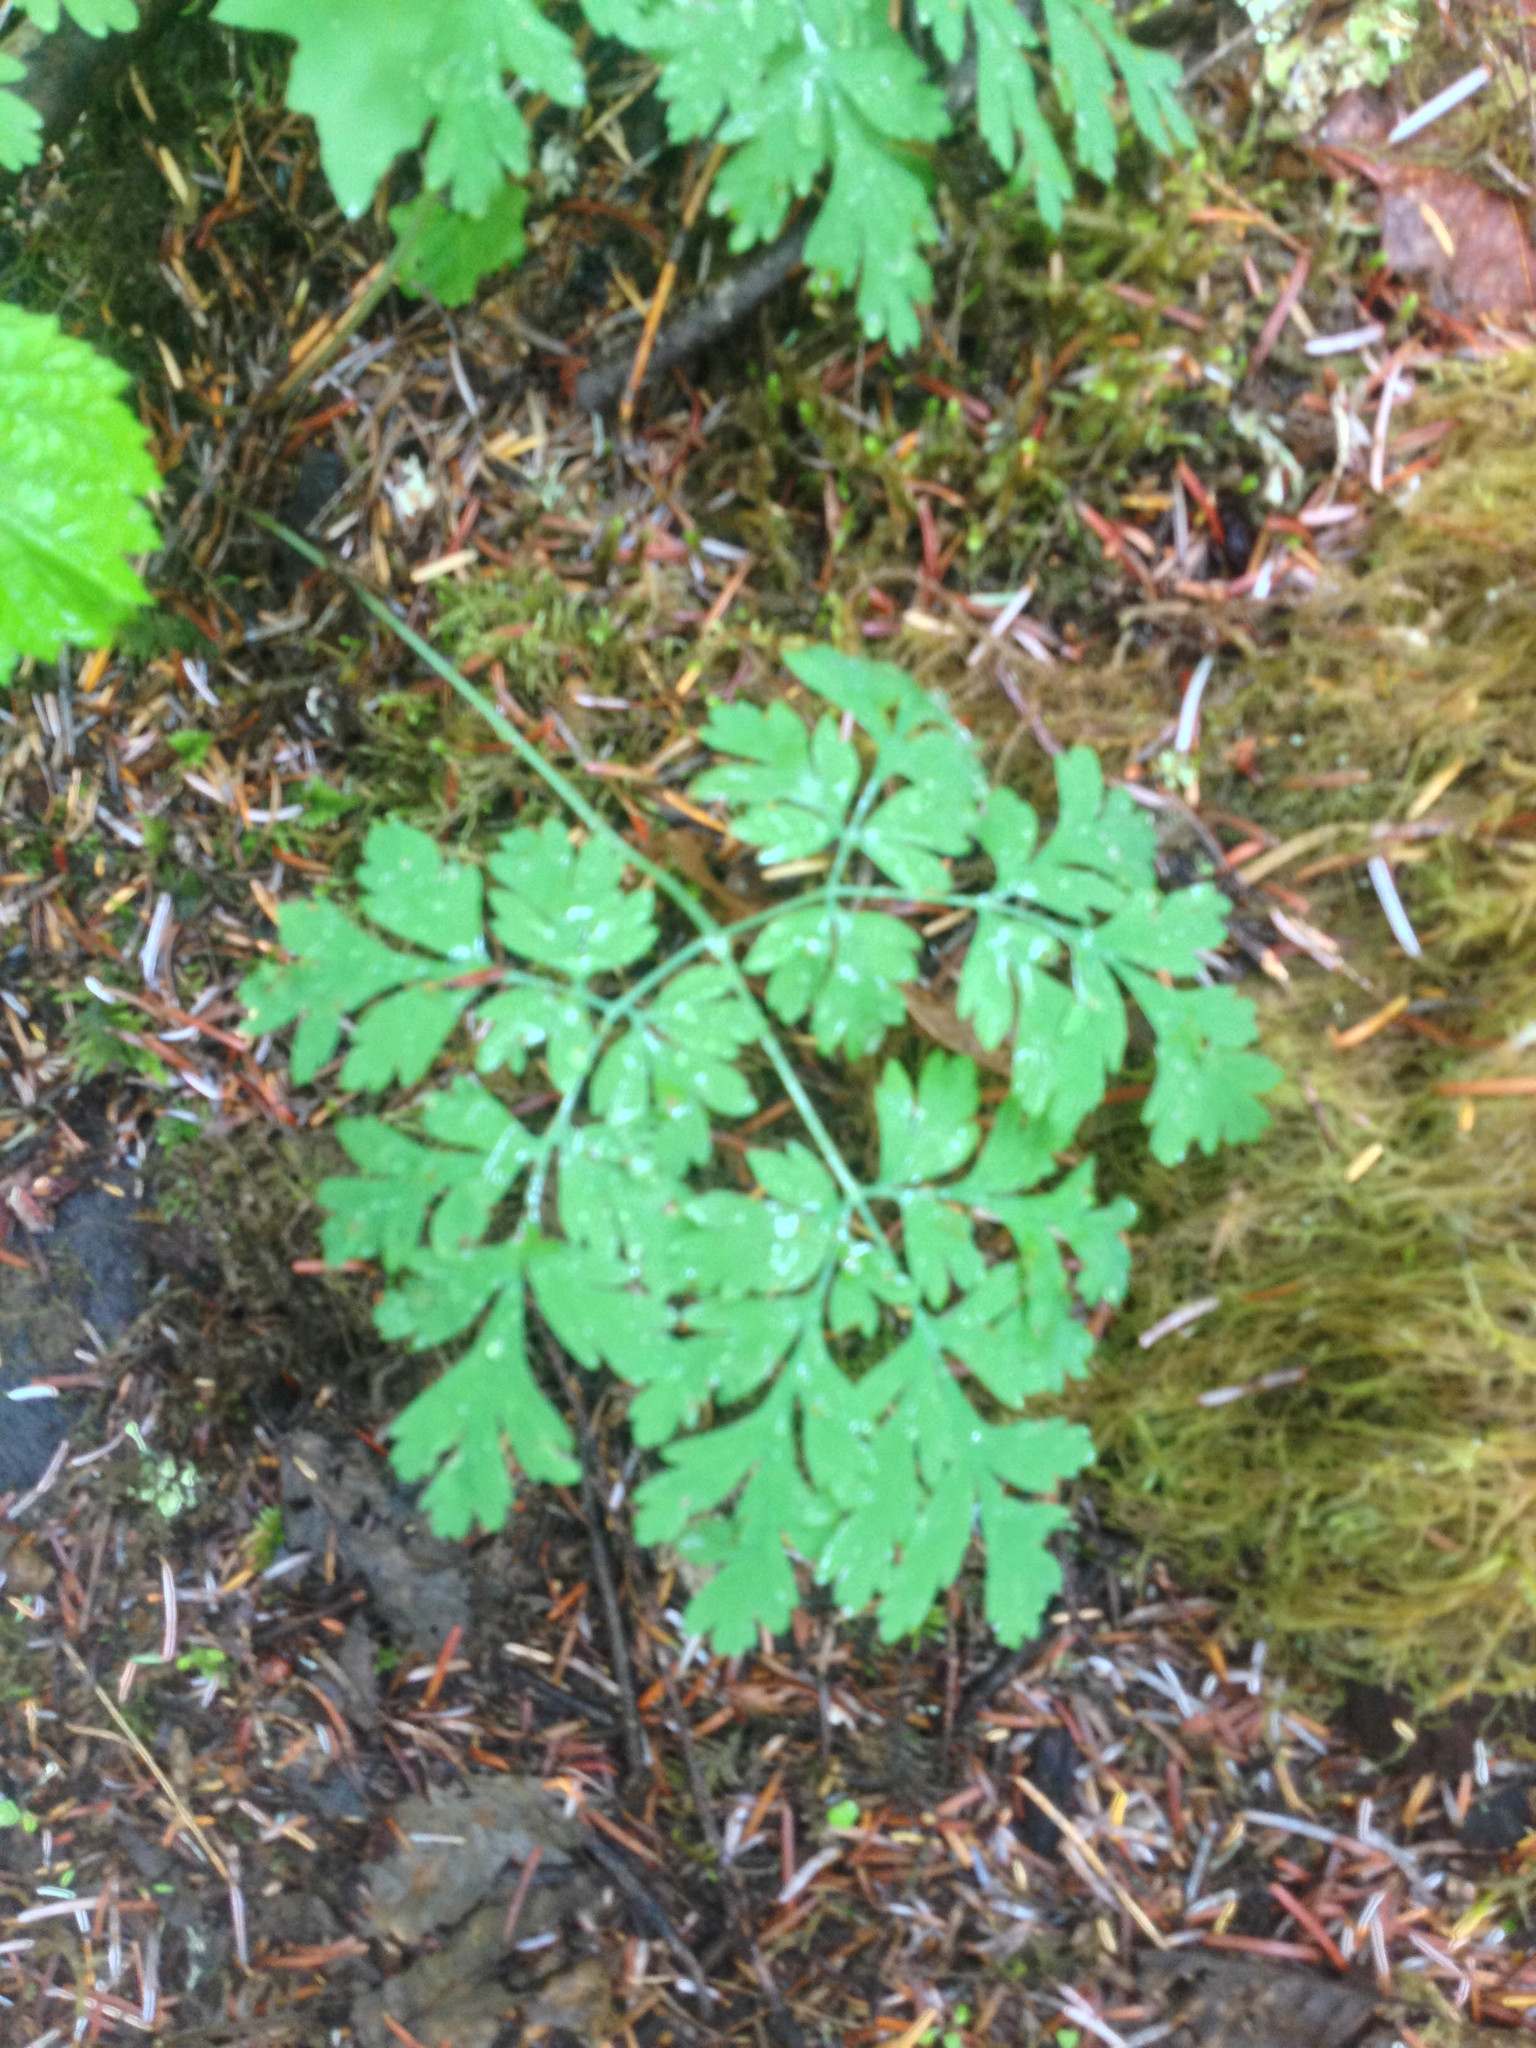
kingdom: Plantae
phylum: Tracheophyta
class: Magnoliopsida
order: Ranunculales
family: Papaveraceae
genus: Dicentra
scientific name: Dicentra formosa
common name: Bleeding-heart
